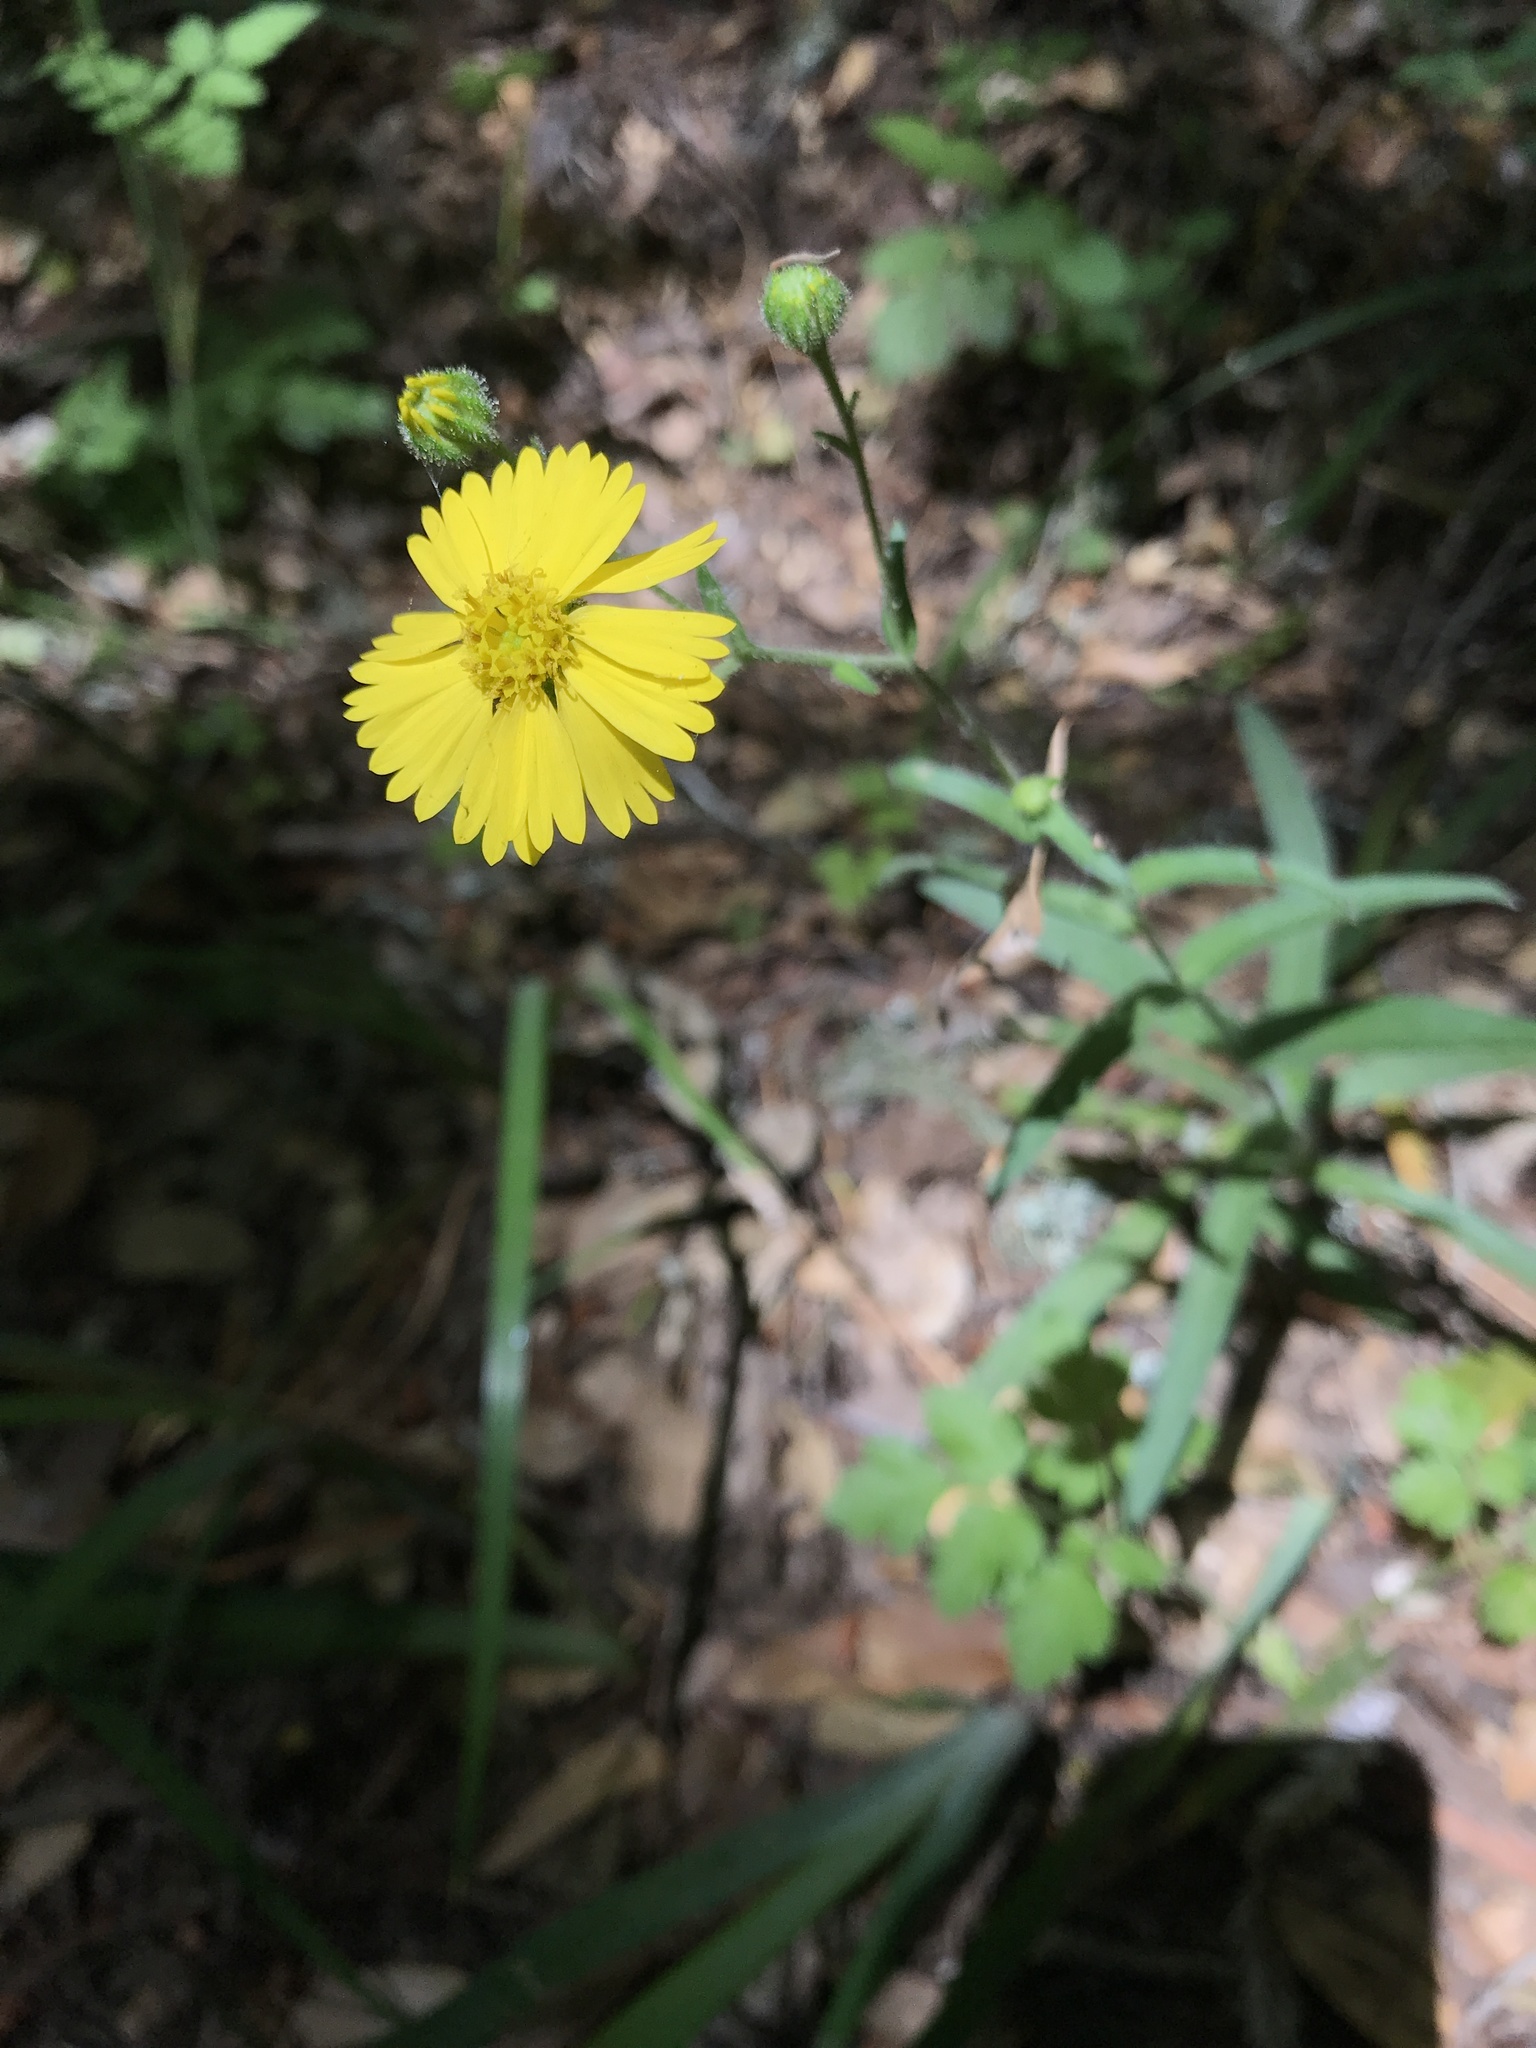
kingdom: Plantae
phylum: Tracheophyta
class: Magnoliopsida
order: Asterales
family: Asteraceae
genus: Anisocarpus
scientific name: Anisocarpus madioides
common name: Woodland madia
